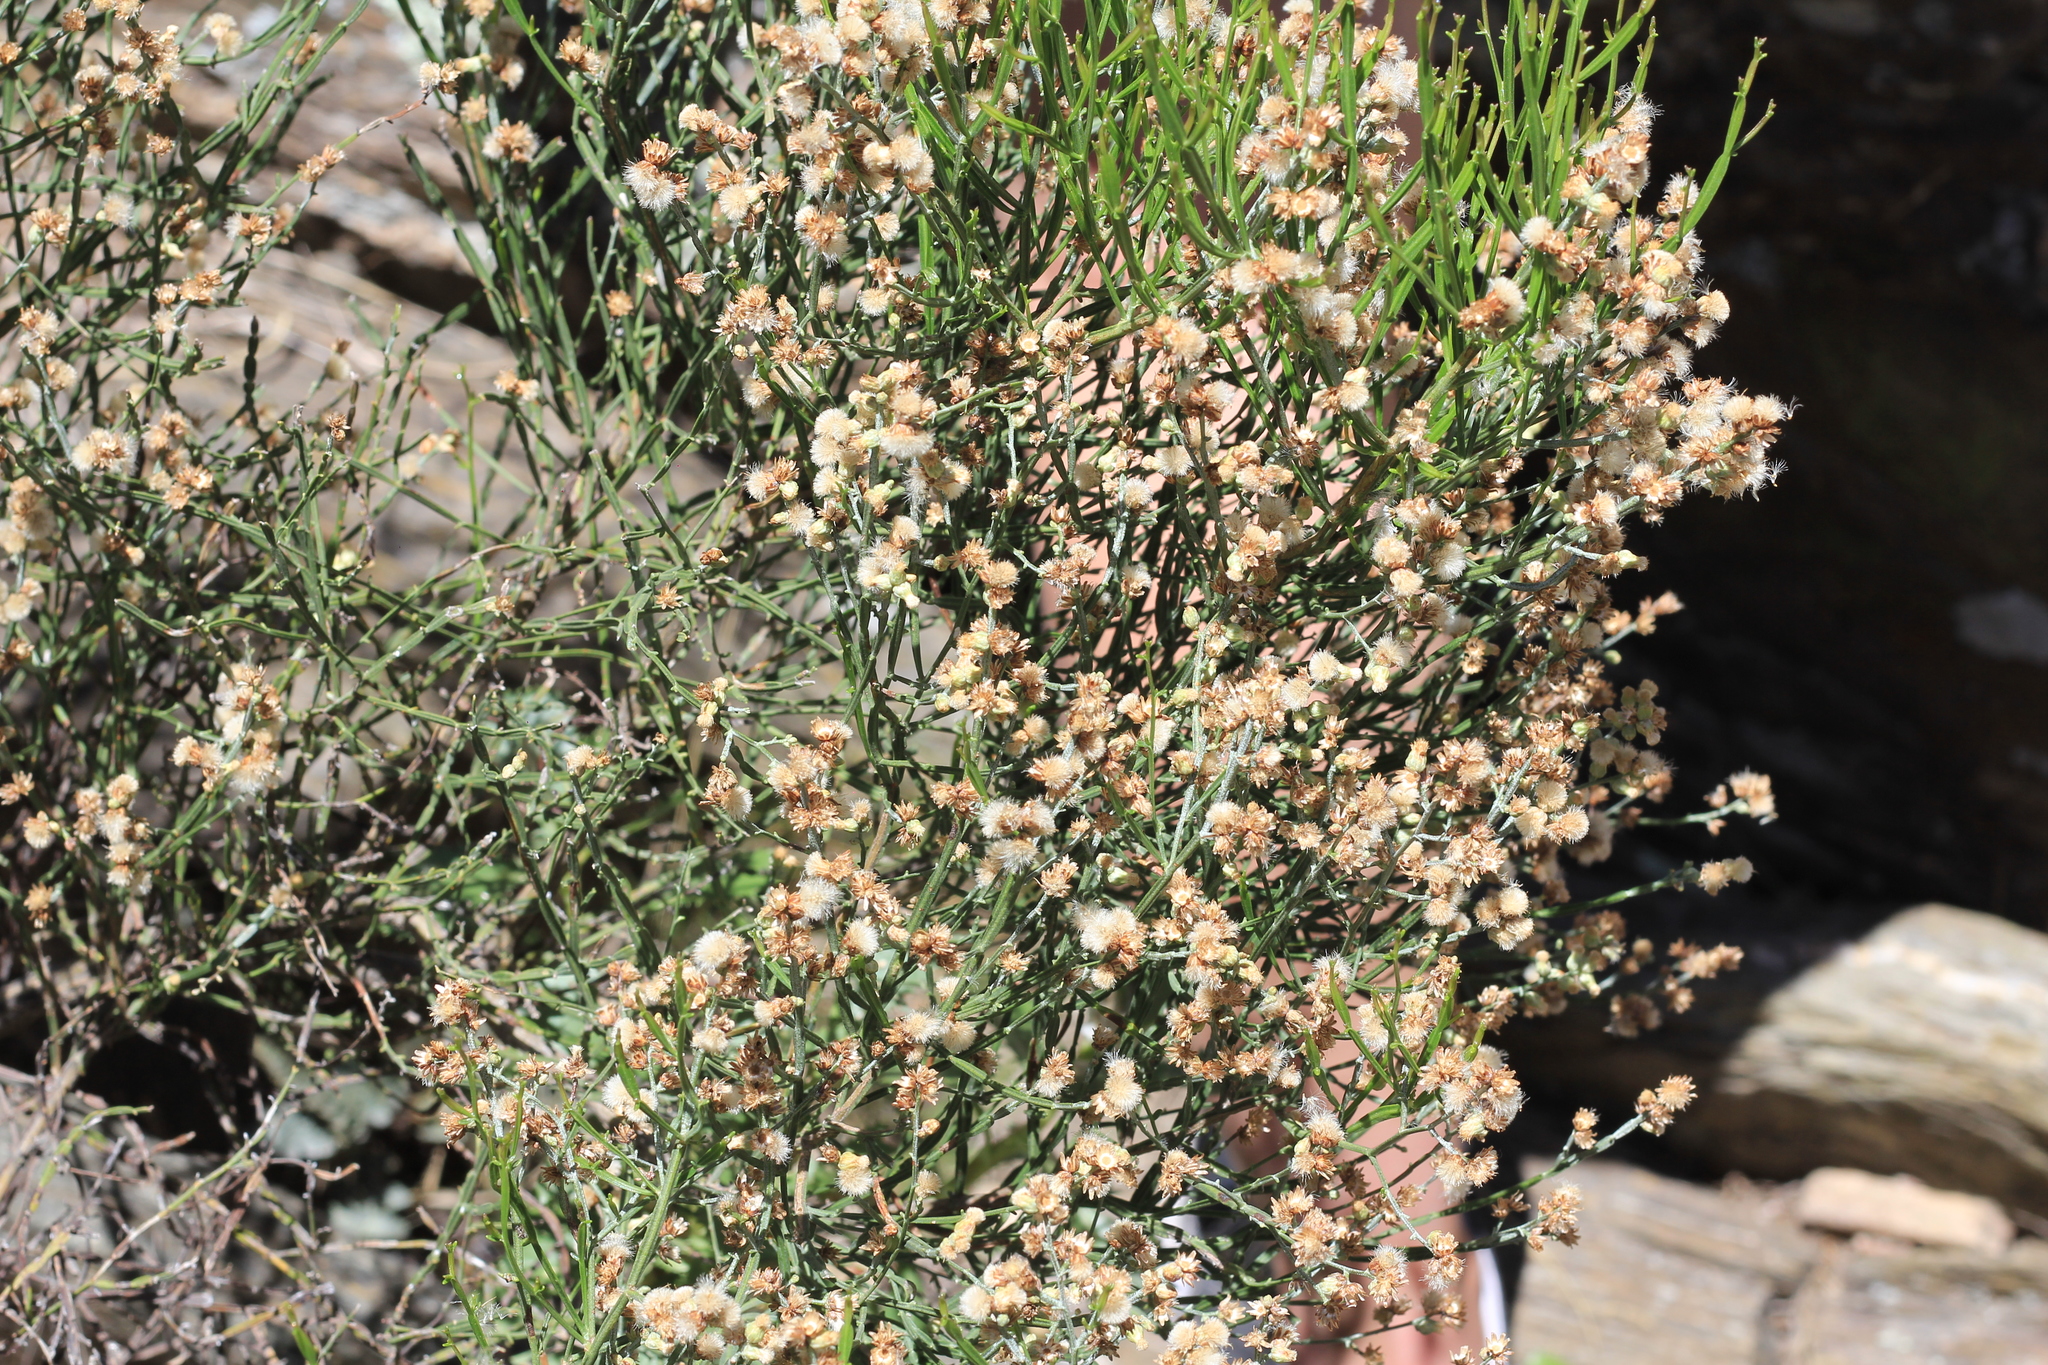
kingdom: Plantae
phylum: Tracheophyta
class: Magnoliopsida
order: Asterales
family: Asteraceae
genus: Baccharis
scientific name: Baccharis articulata
